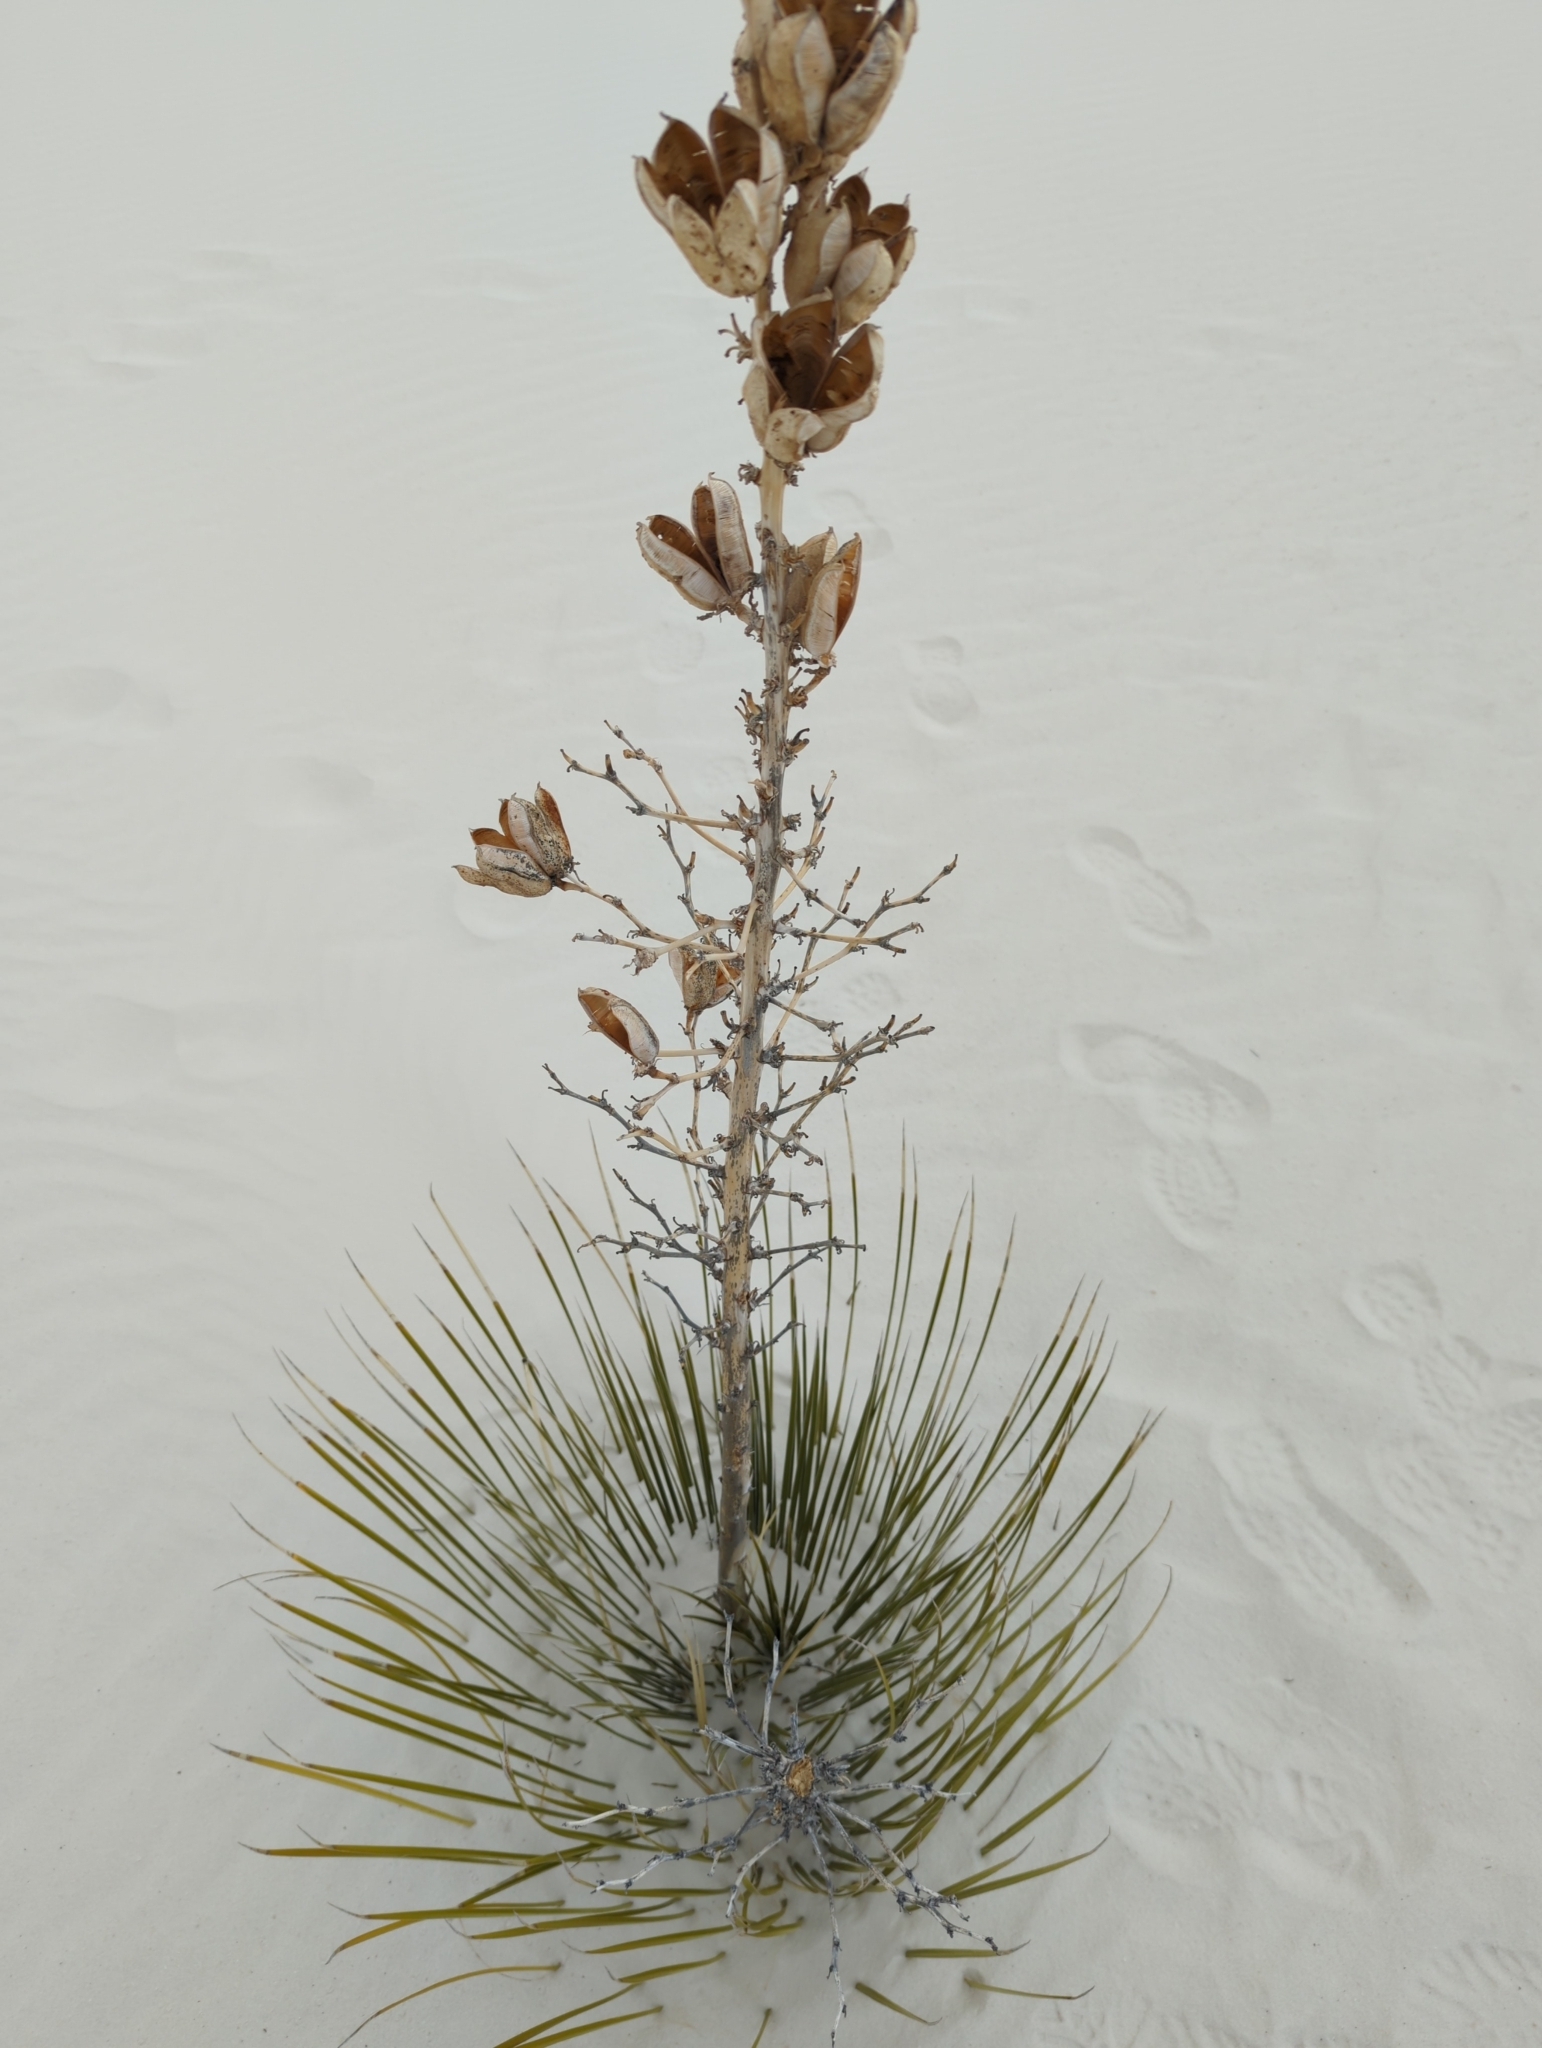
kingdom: Plantae
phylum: Tracheophyta
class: Liliopsida
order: Asparagales
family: Asparagaceae
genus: Yucca
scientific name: Yucca elata
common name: Palmella
